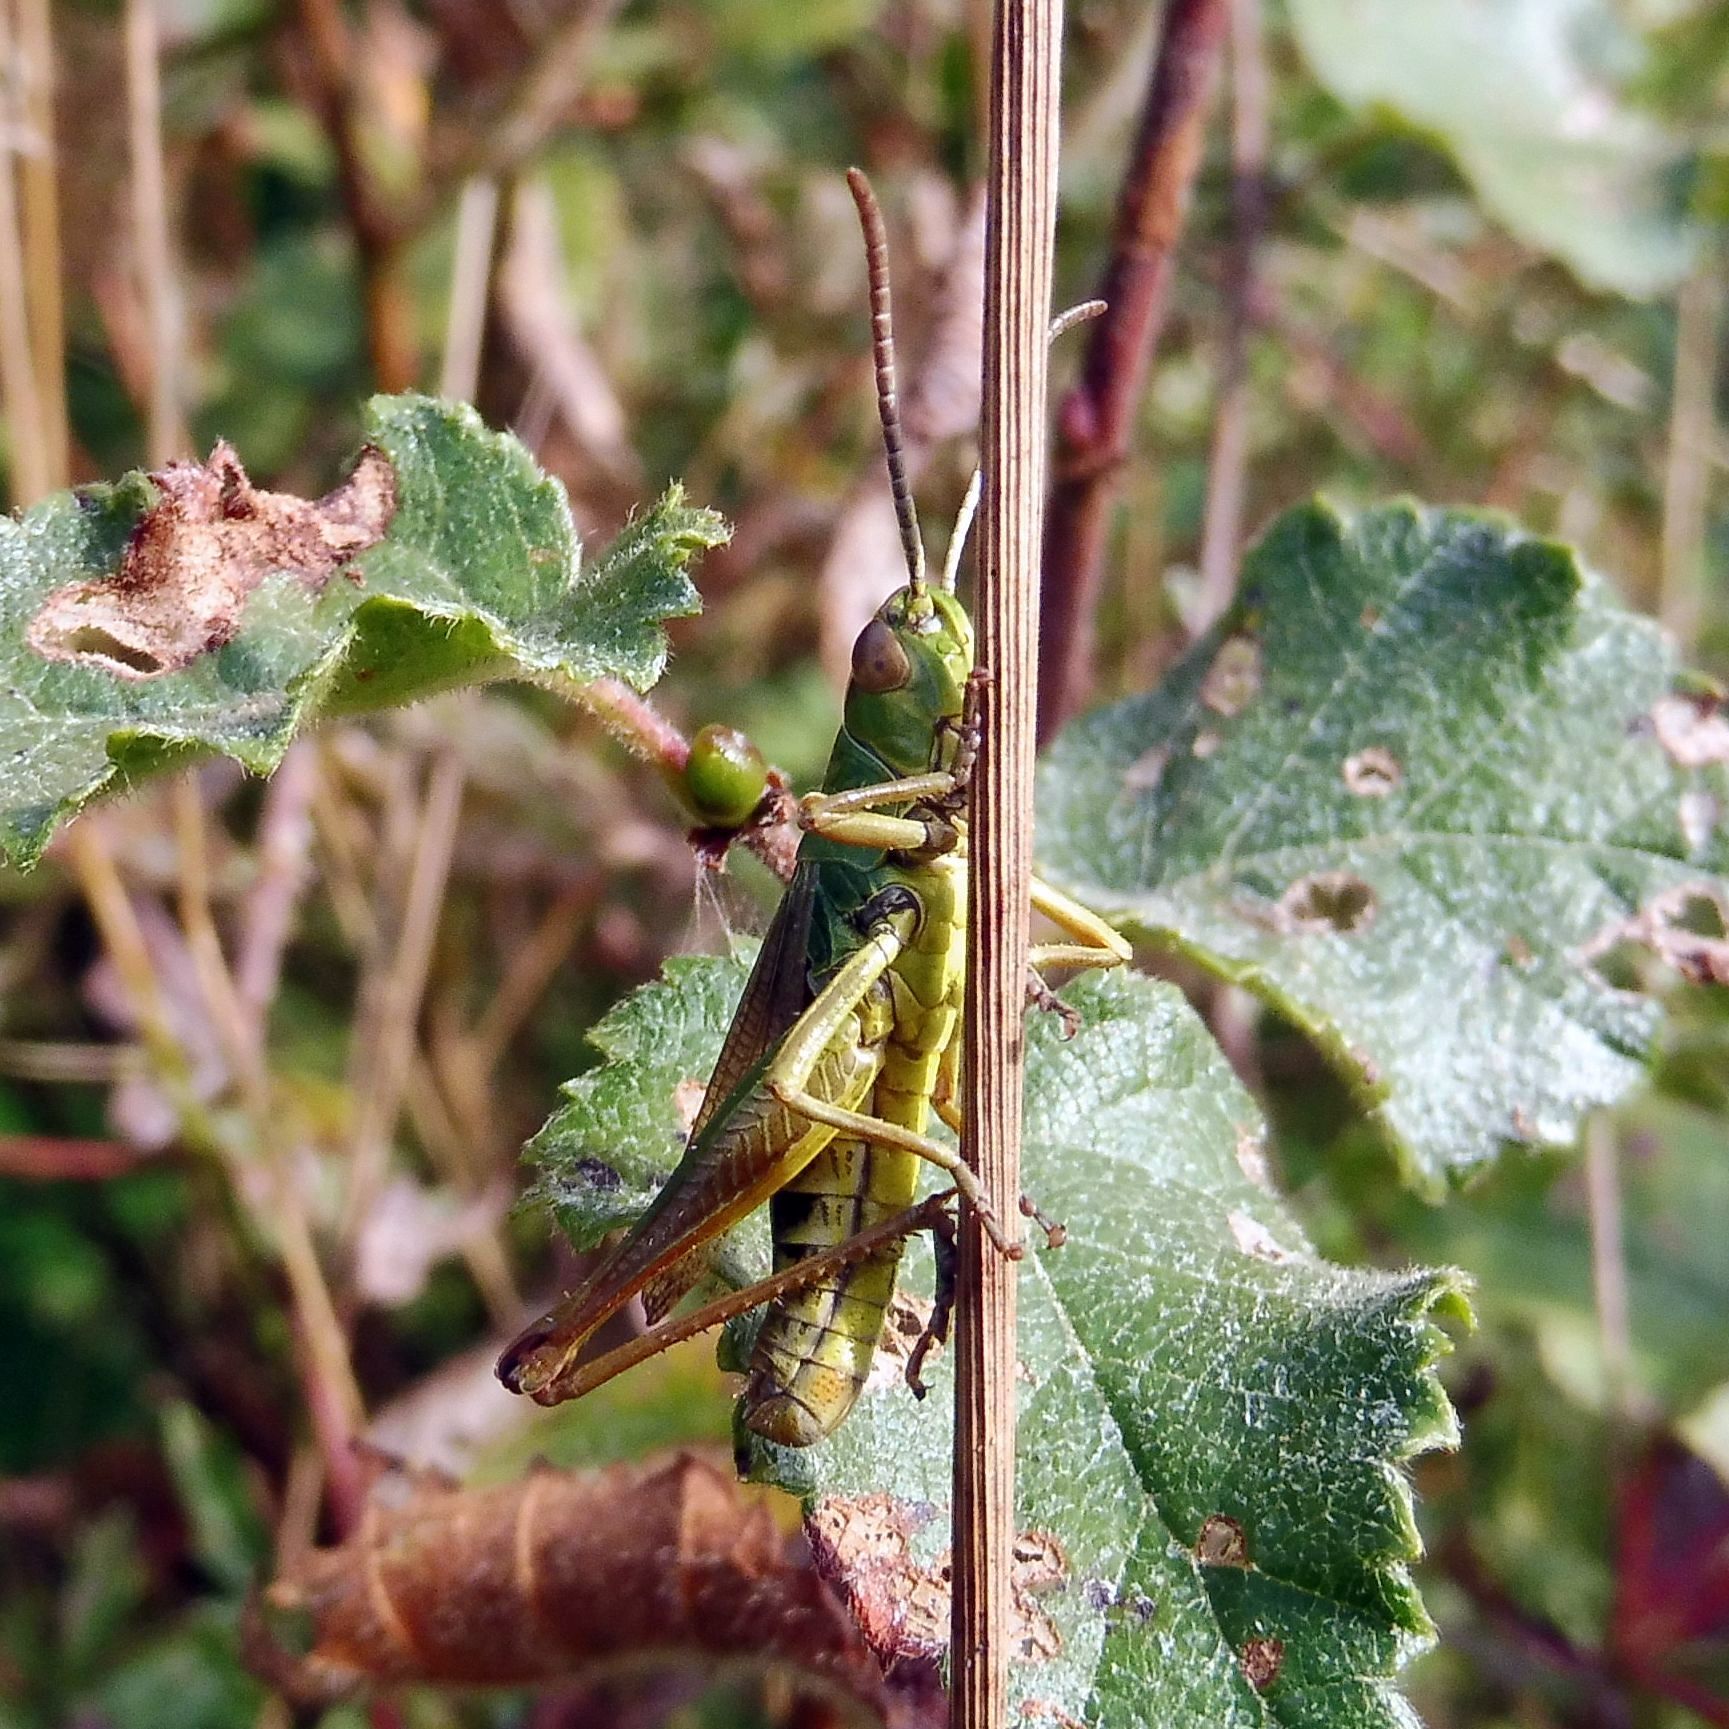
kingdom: Animalia
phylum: Arthropoda
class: Insecta
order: Orthoptera
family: Acrididae
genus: Pseudochorthippus
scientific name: Pseudochorthippus parallelus
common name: Meadow grasshopper
